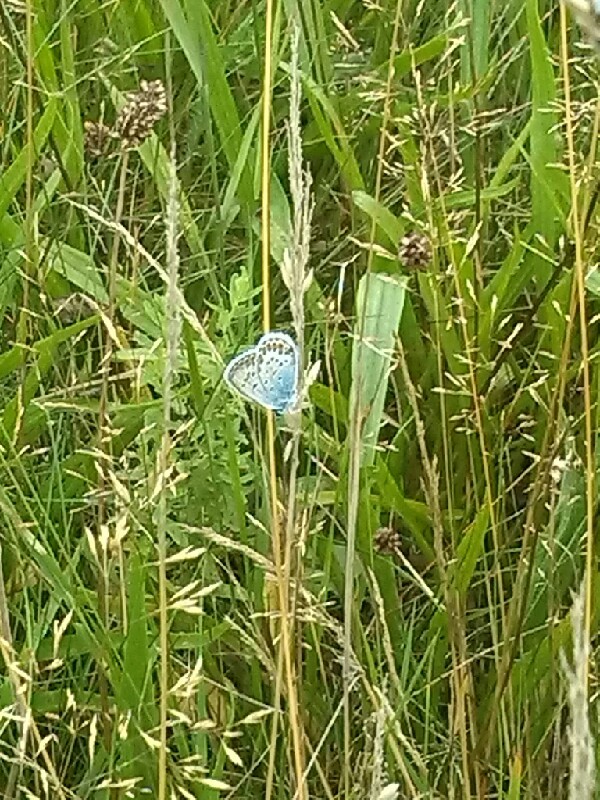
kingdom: Animalia
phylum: Arthropoda
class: Insecta
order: Lepidoptera
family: Lycaenidae
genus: Plebejus
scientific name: Plebejus argus
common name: Silver-studded blue
